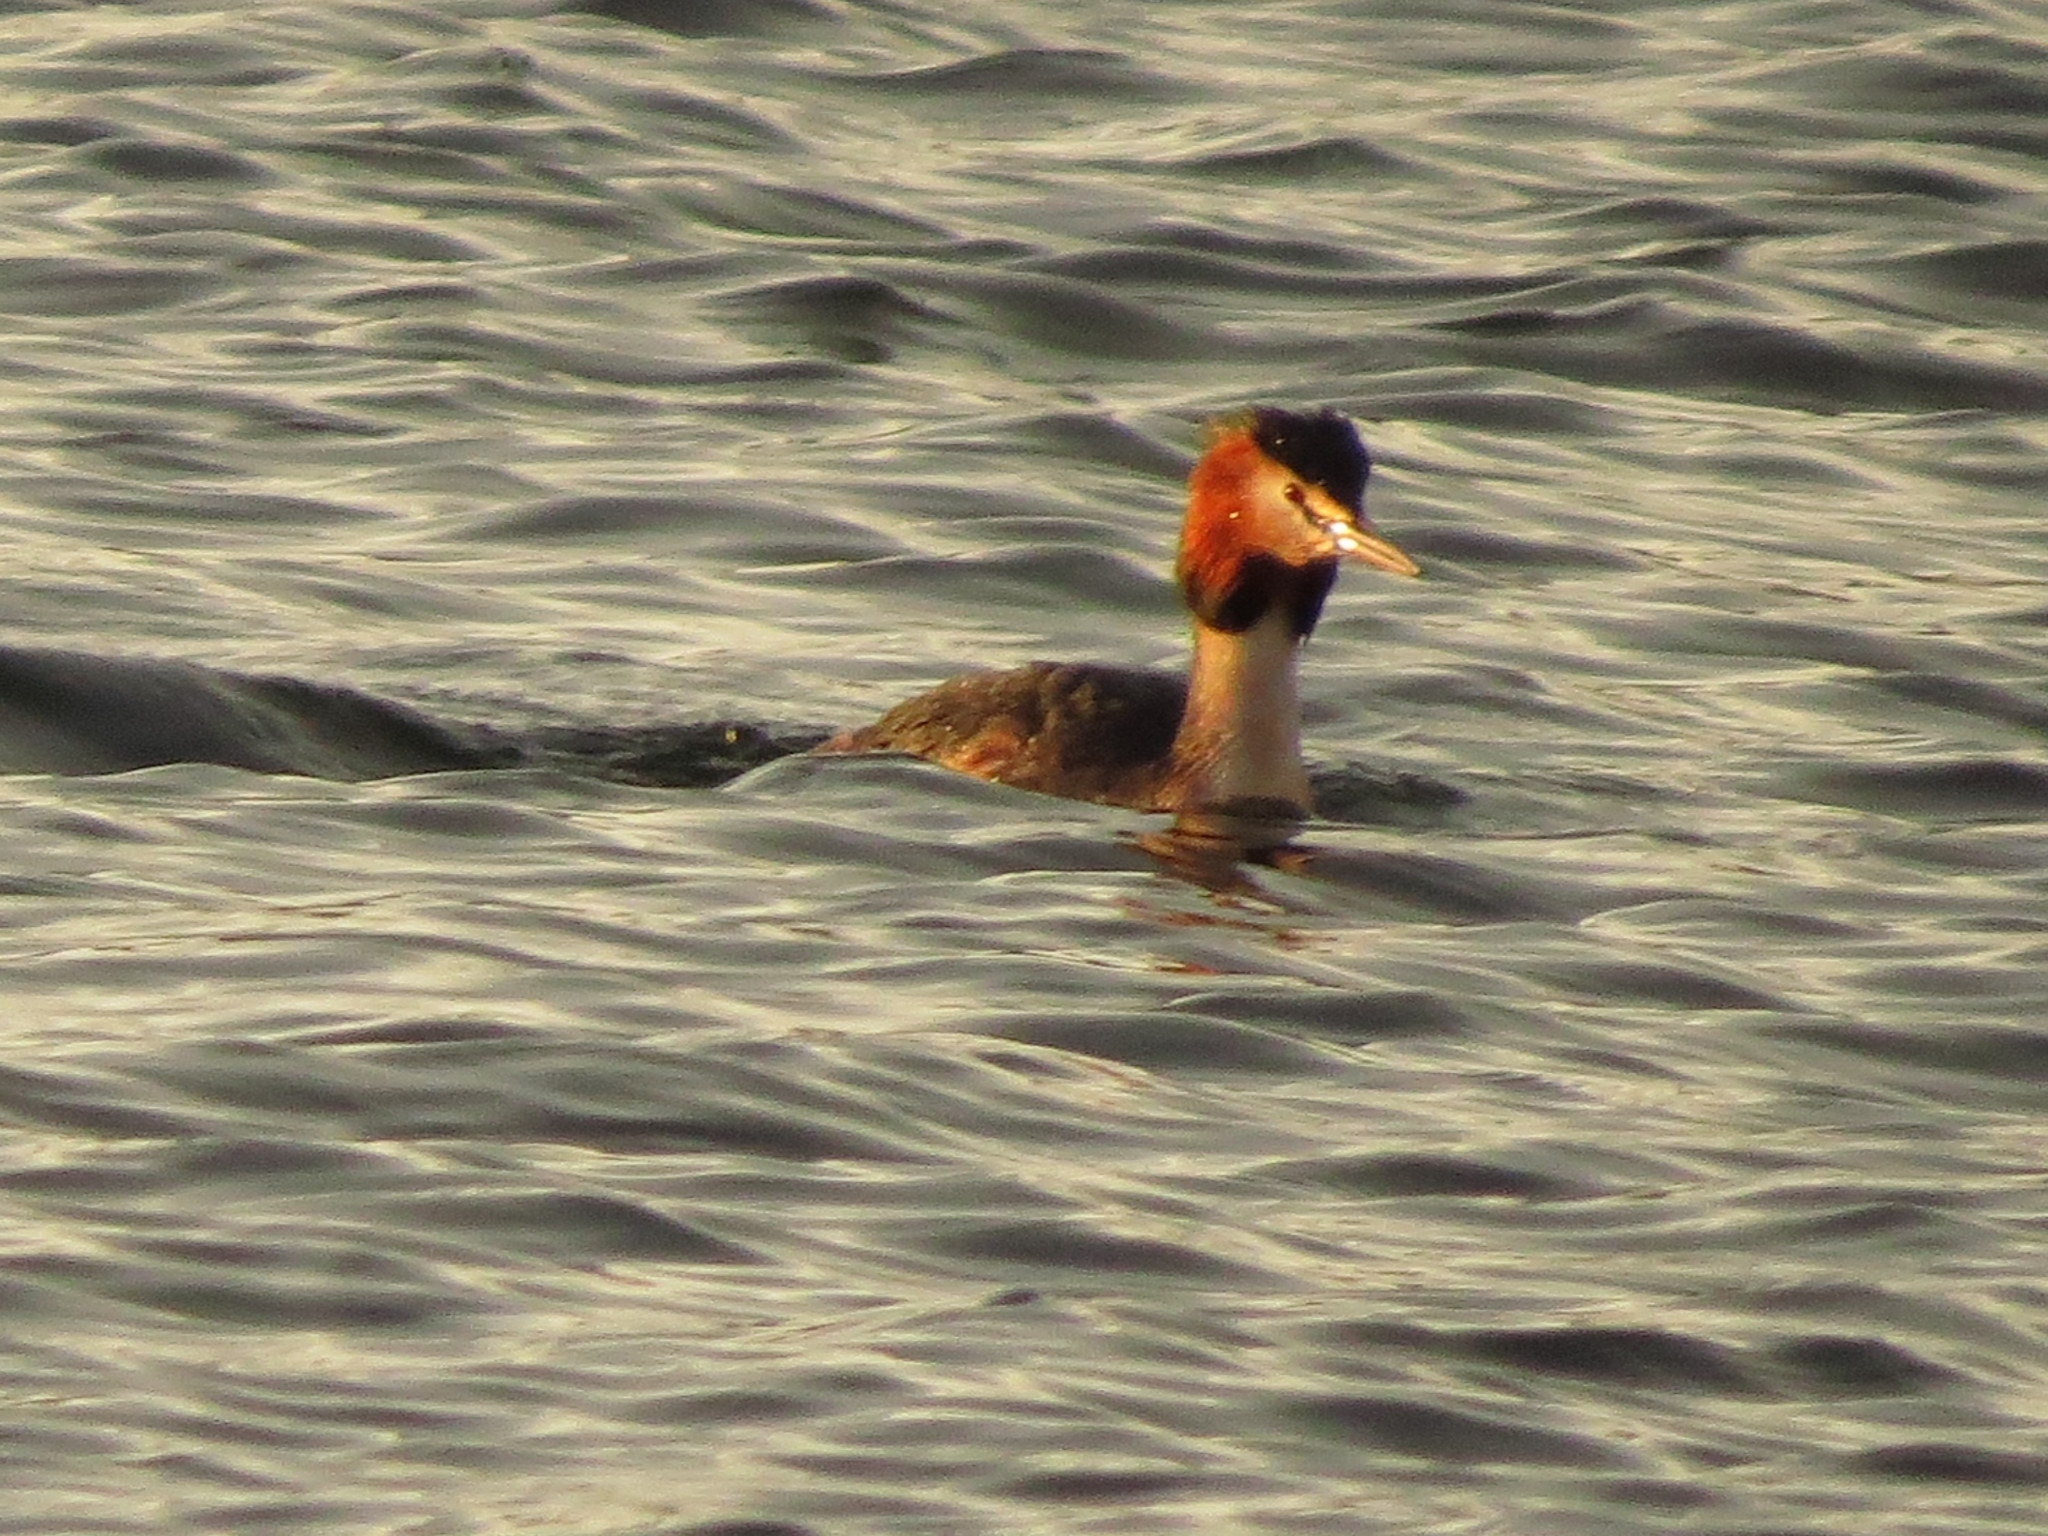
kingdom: Animalia
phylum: Chordata
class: Aves
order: Podicipediformes
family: Podicipedidae
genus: Podiceps
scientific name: Podiceps cristatus
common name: Great crested grebe
